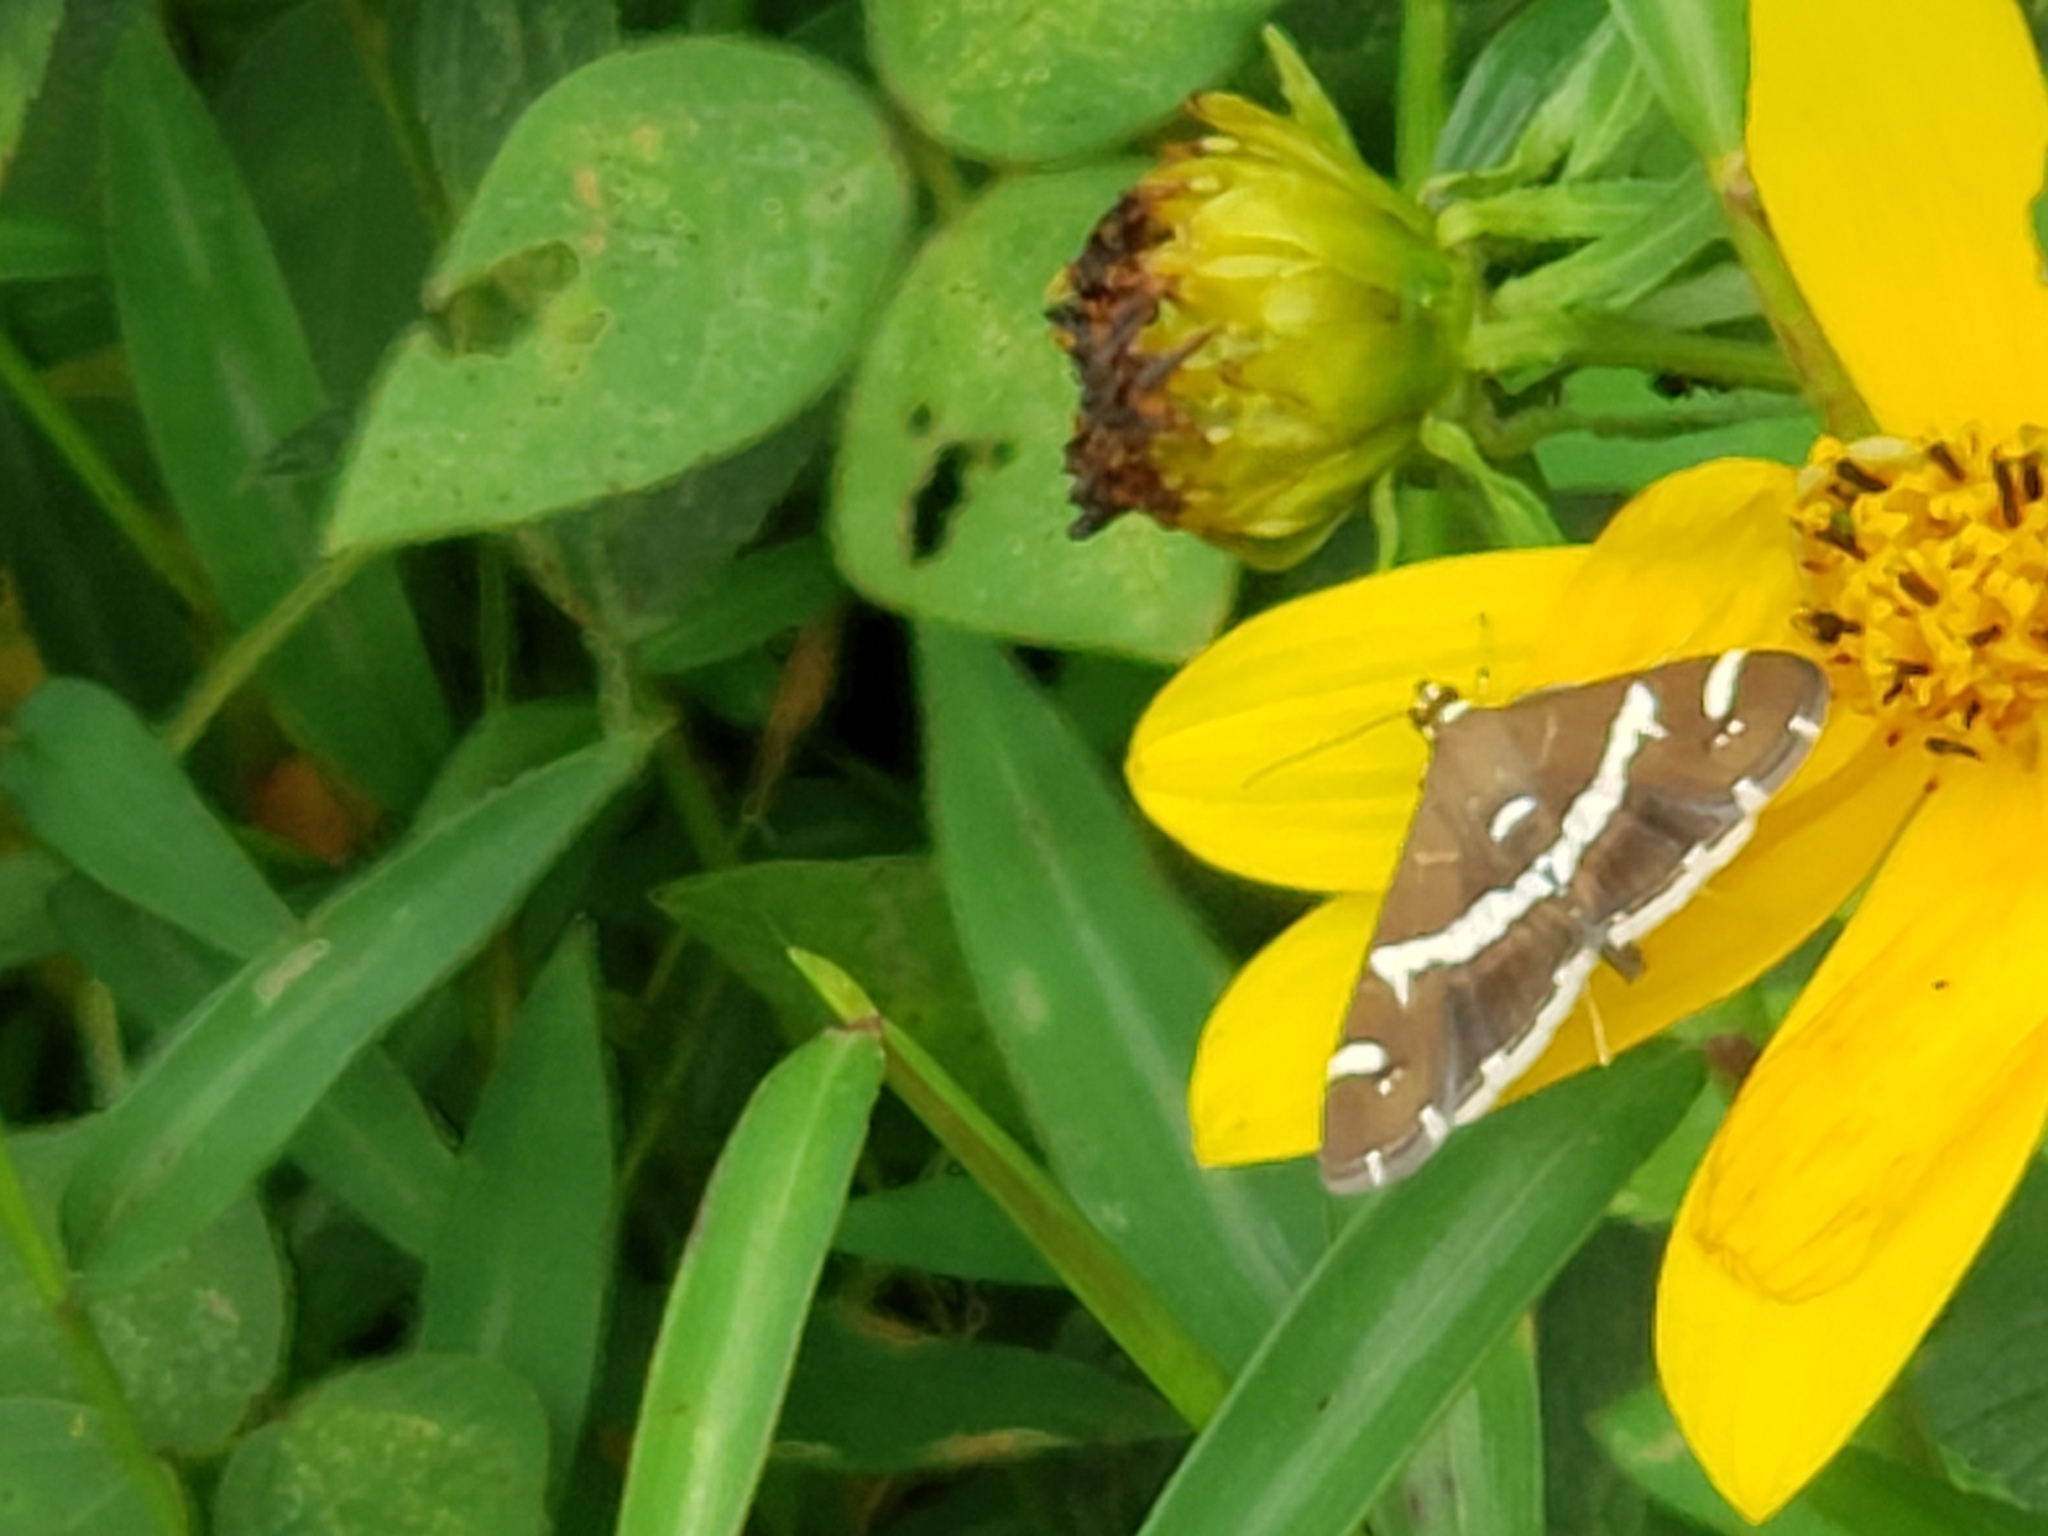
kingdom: Animalia
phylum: Arthropoda
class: Insecta
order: Lepidoptera
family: Crambidae
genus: Spoladea
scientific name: Spoladea recurvalis
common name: Beet webworm moth
